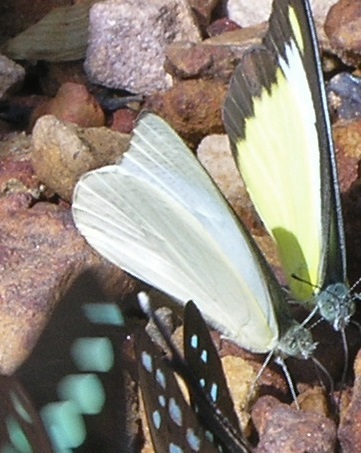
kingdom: Animalia
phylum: Arthropoda
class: Insecta
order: Lepidoptera
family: Pieridae
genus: Appias
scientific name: Appias albina
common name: Common albatross
